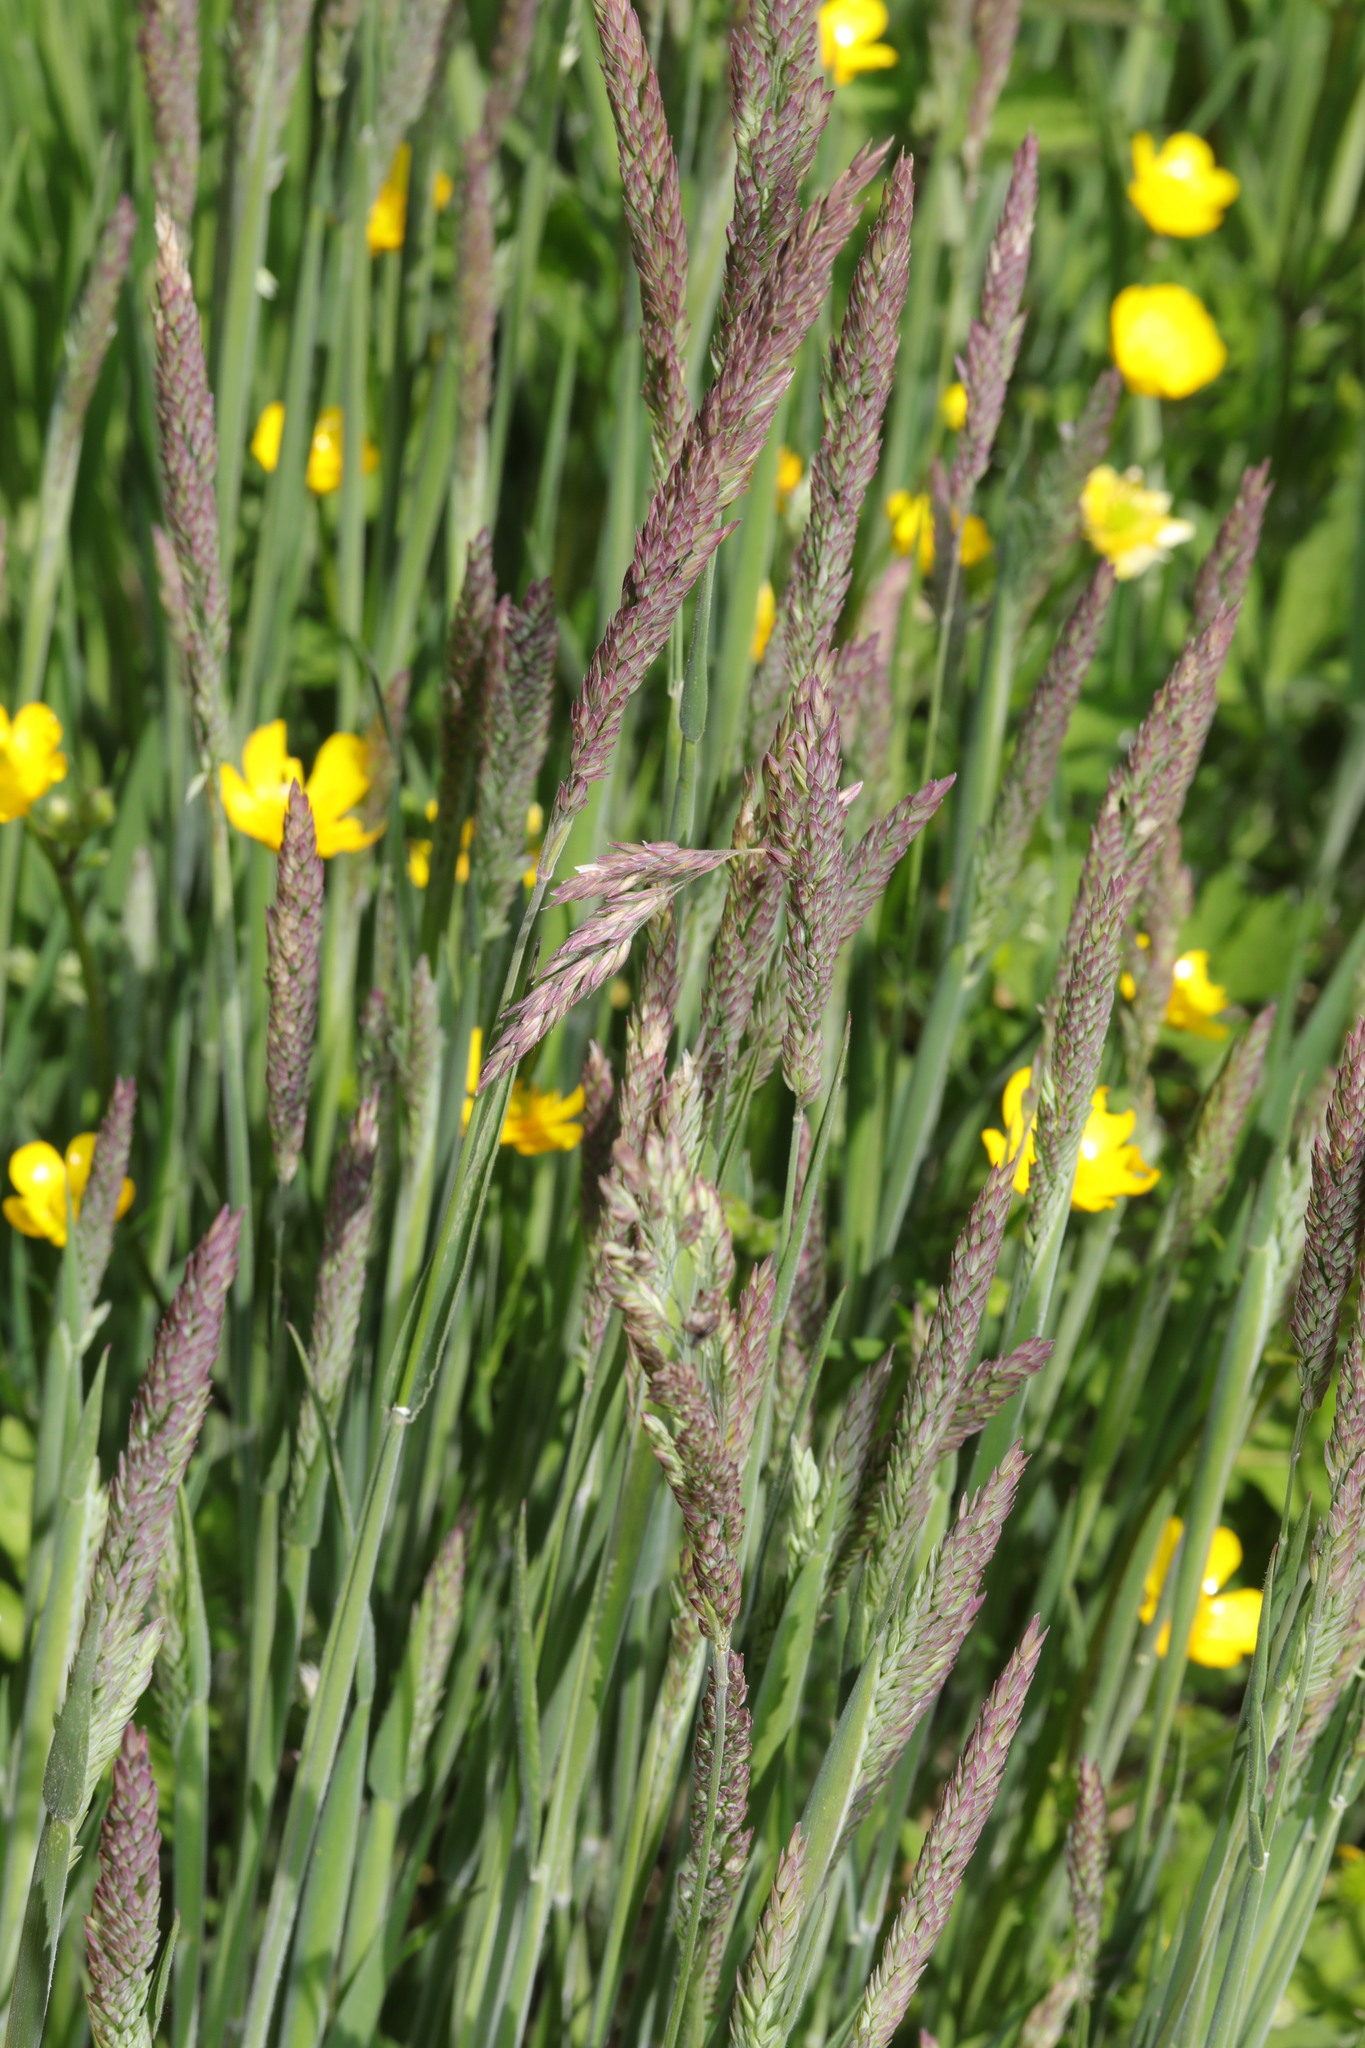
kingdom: Plantae
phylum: Tracheophyta
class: Liliopsida
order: Poales
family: Poaceae
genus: Holcus
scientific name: Holcus lanatus
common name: Yorkshire-fog
